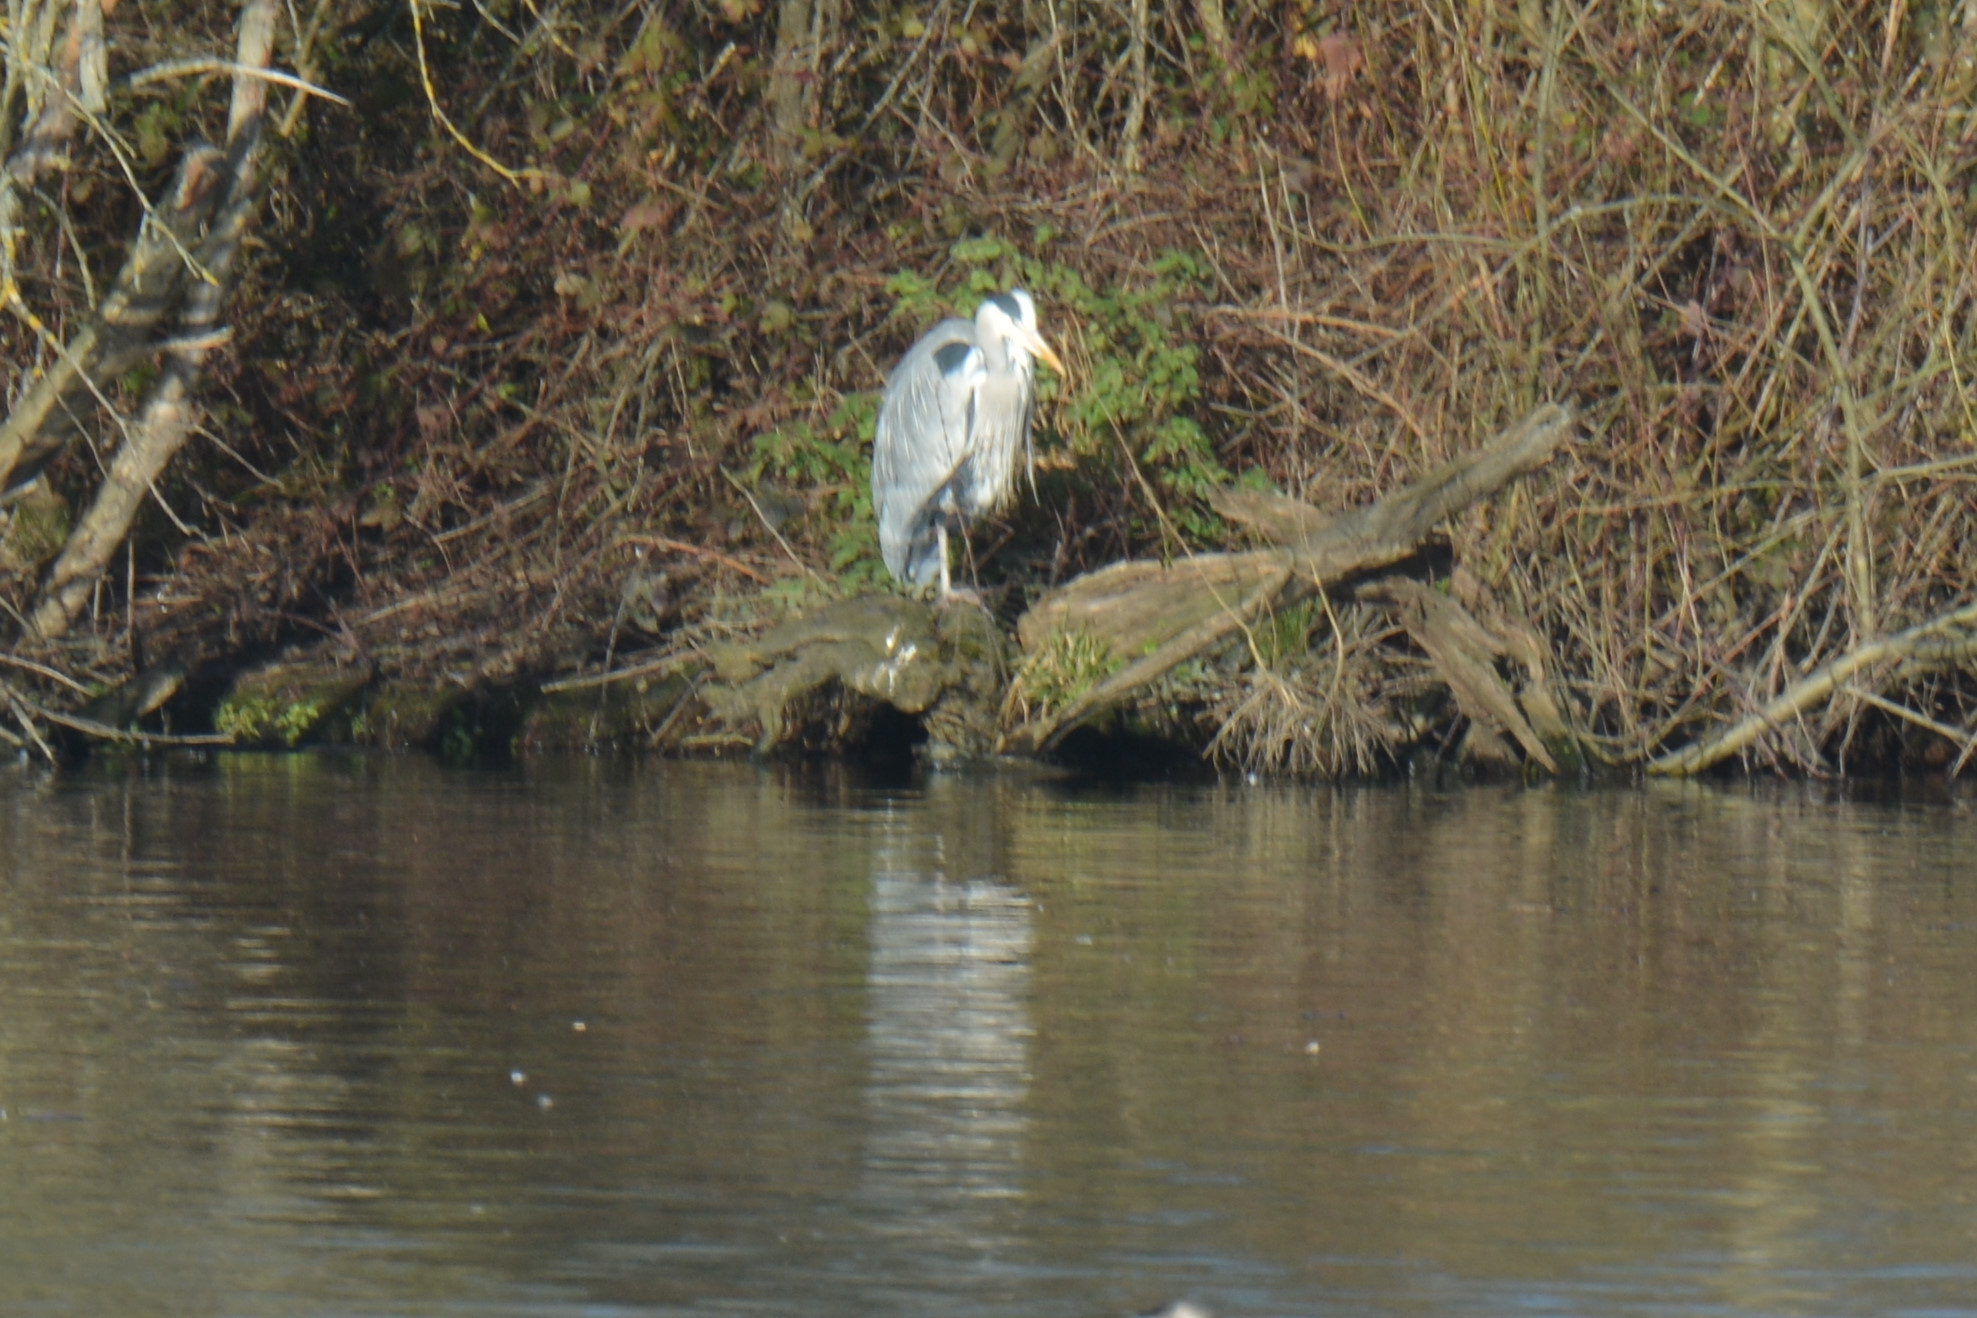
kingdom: Animalia
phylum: Chordata
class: Aves
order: Pelecaniformes
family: Ardeidae
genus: Ardea
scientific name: Ardea cinerea
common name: Grey heron
